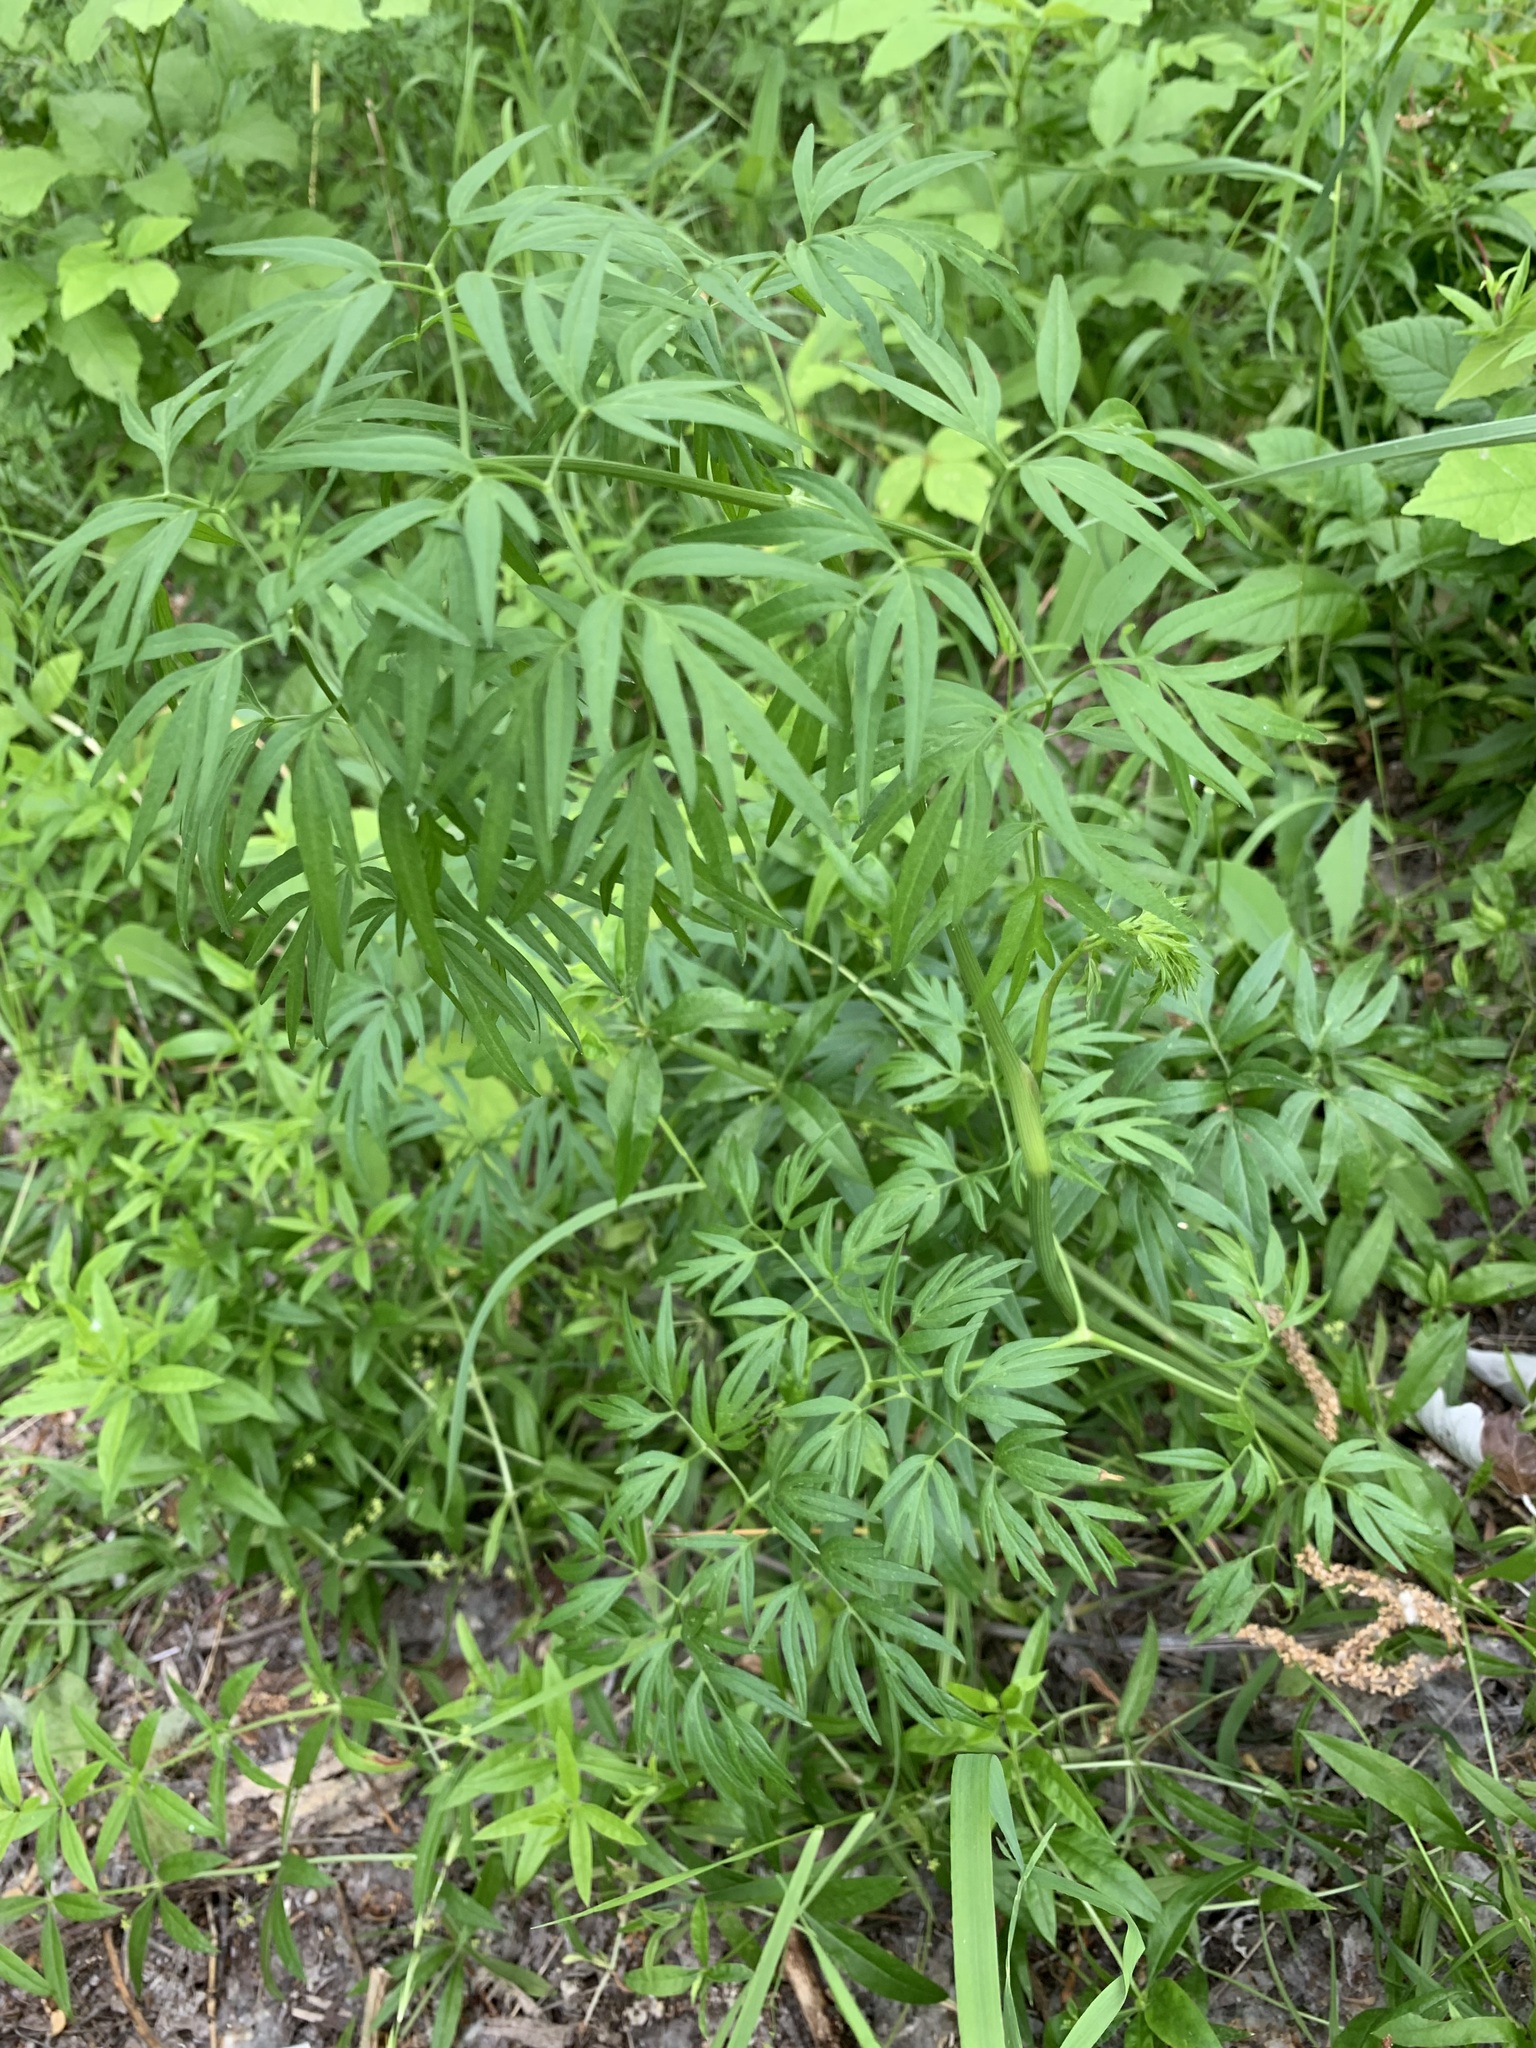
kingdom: Plantae
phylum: Tracheophyta
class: Magnoliopsida
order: Apiales
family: Apiaceae
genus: Cenolophium
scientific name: Cenolophium fischeri
